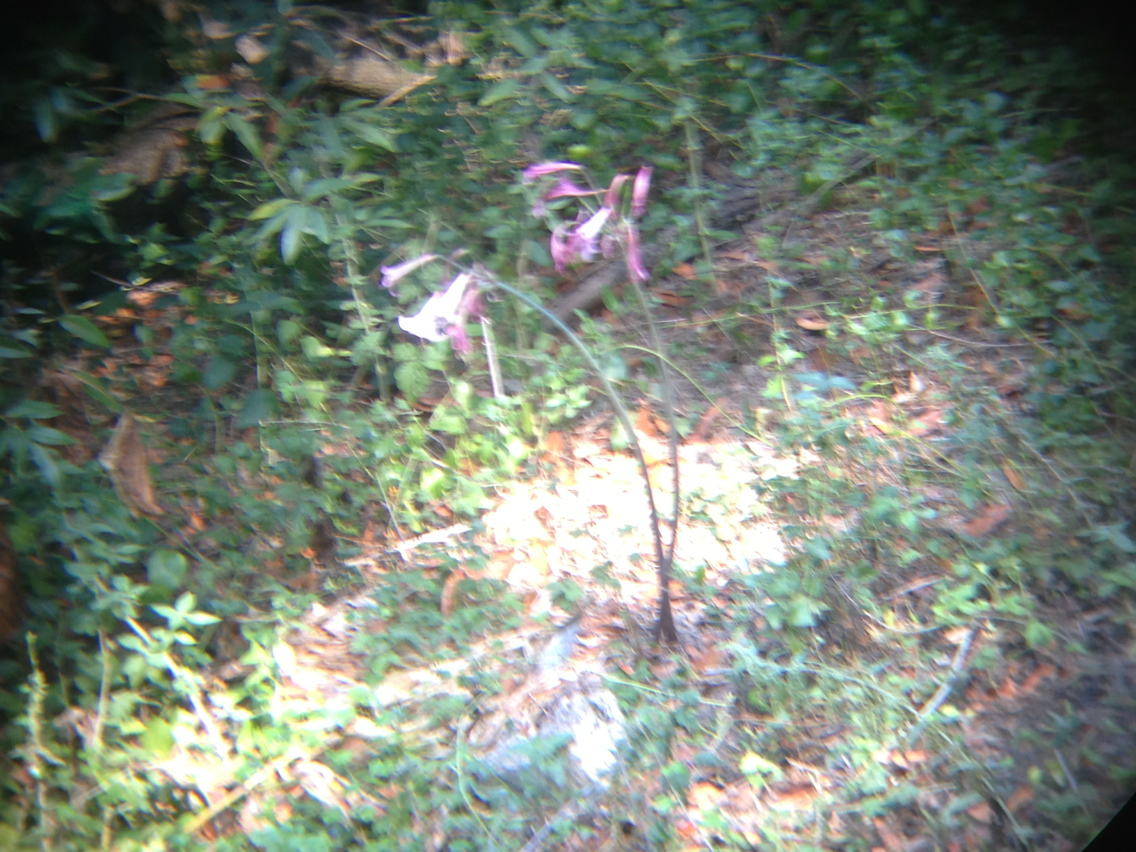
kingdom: Plantae
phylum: Tracheophyta
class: Liliopsida
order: Asparagales
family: Amaryllidaceae
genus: Amaryllis
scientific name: Amaryllis belladonna
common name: Jersey lily
